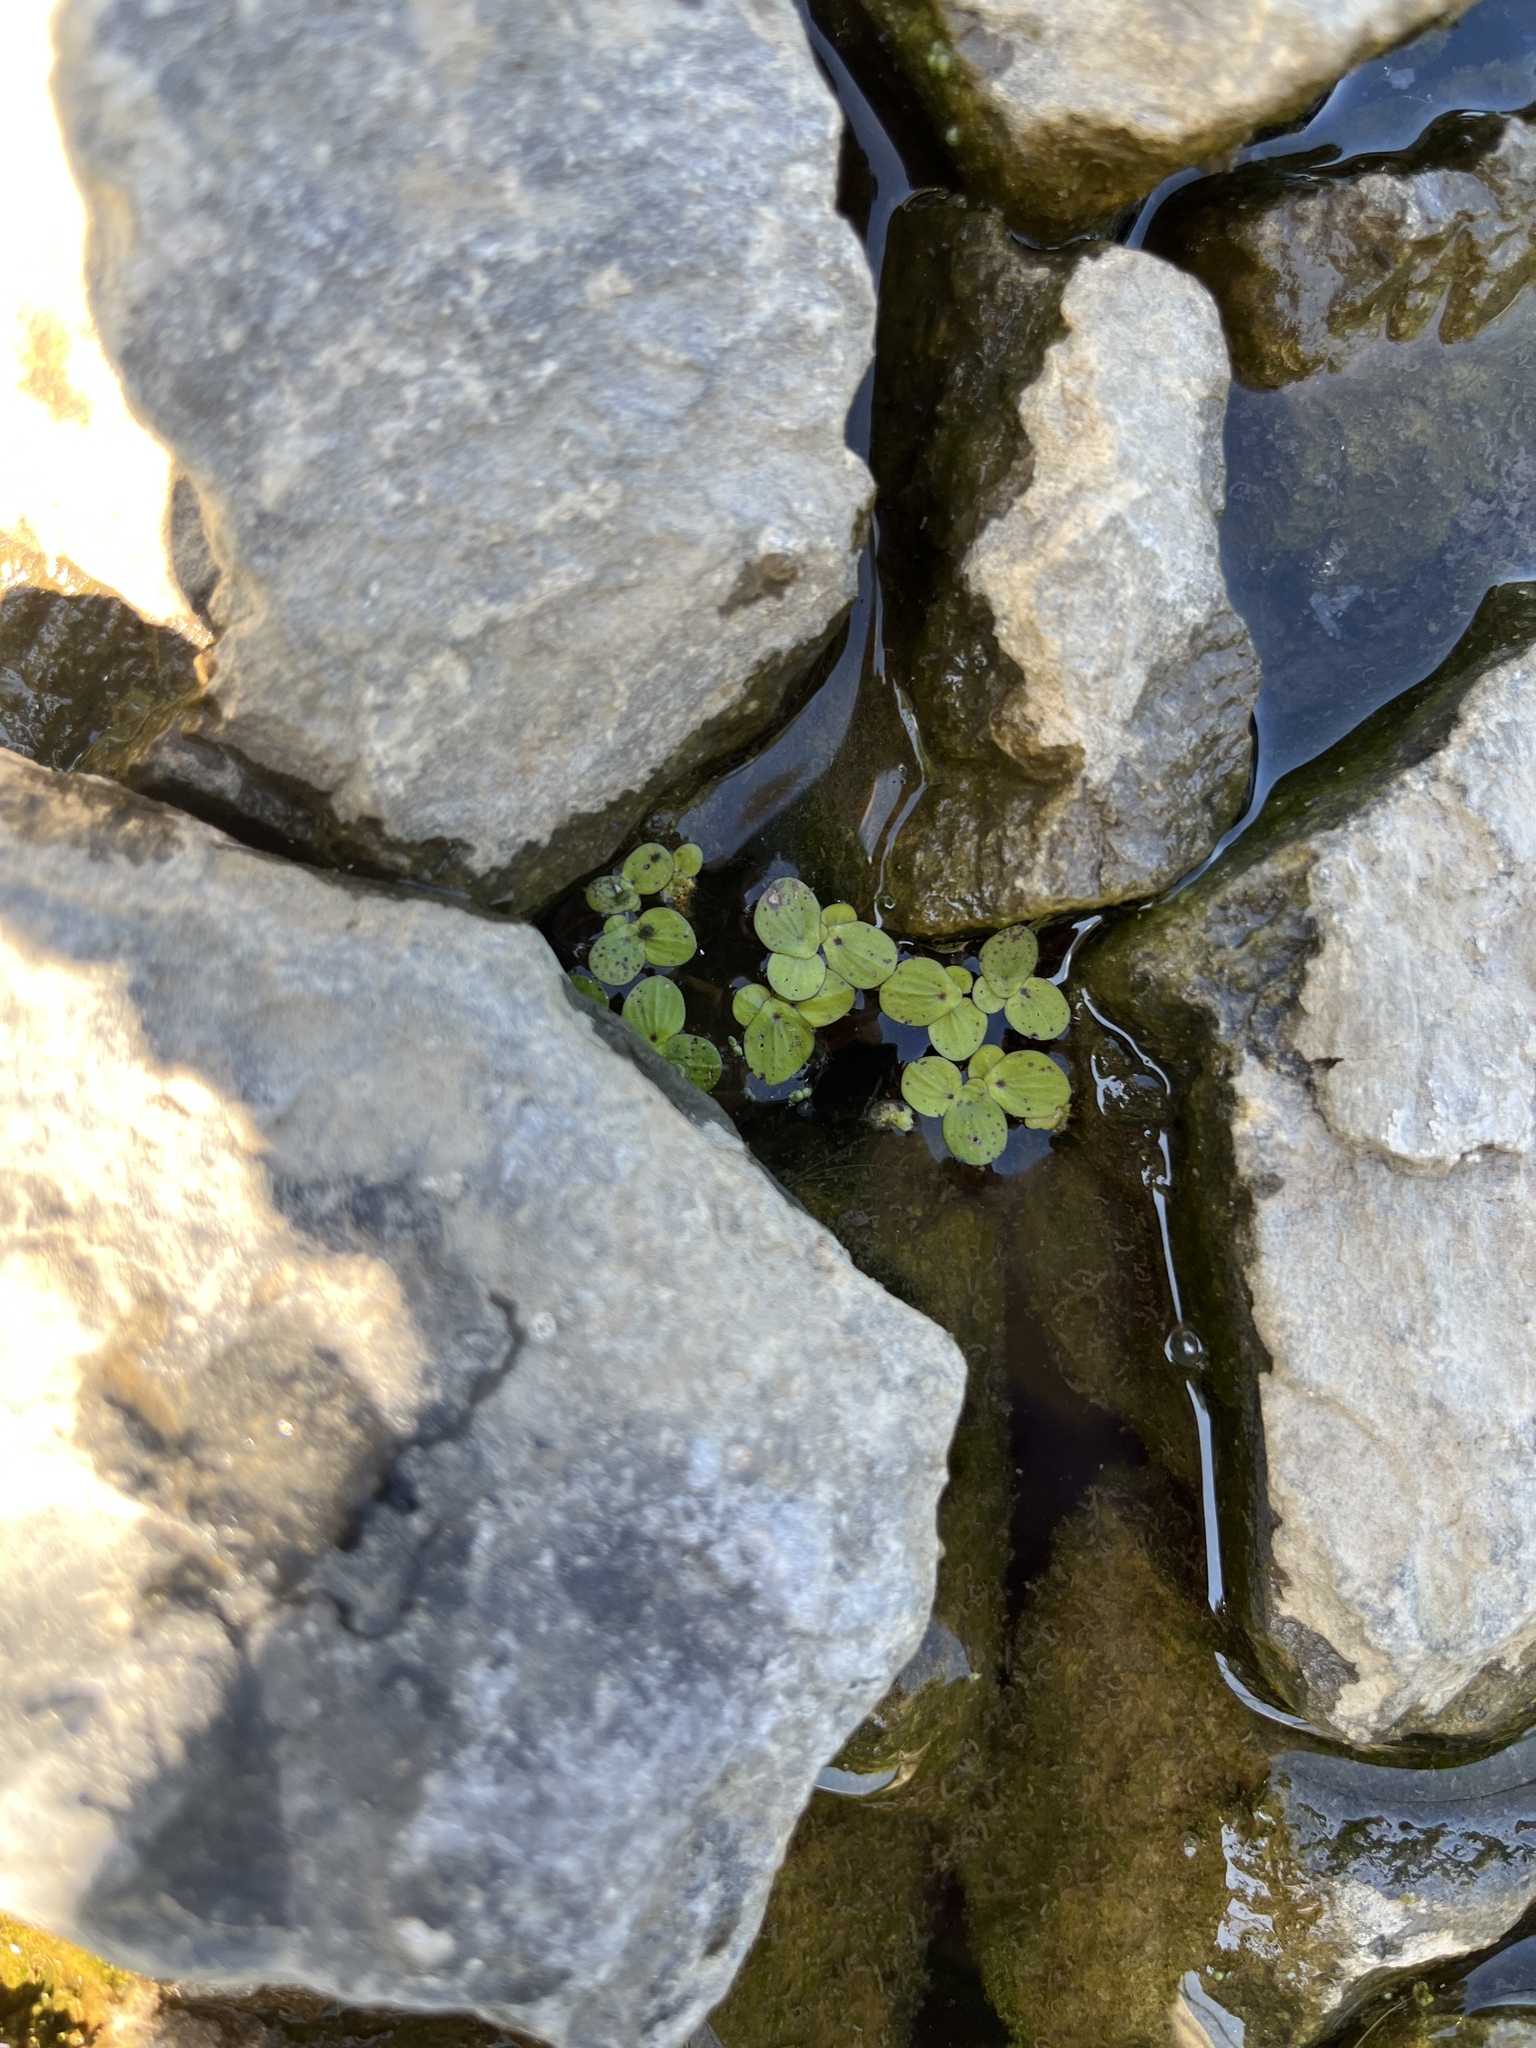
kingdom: Plantae
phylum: Tracheophyta
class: Liliopsida
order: Alismatales
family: Araceae
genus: Spirodela
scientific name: Spirodela polyrhiza
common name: Great duckweed
